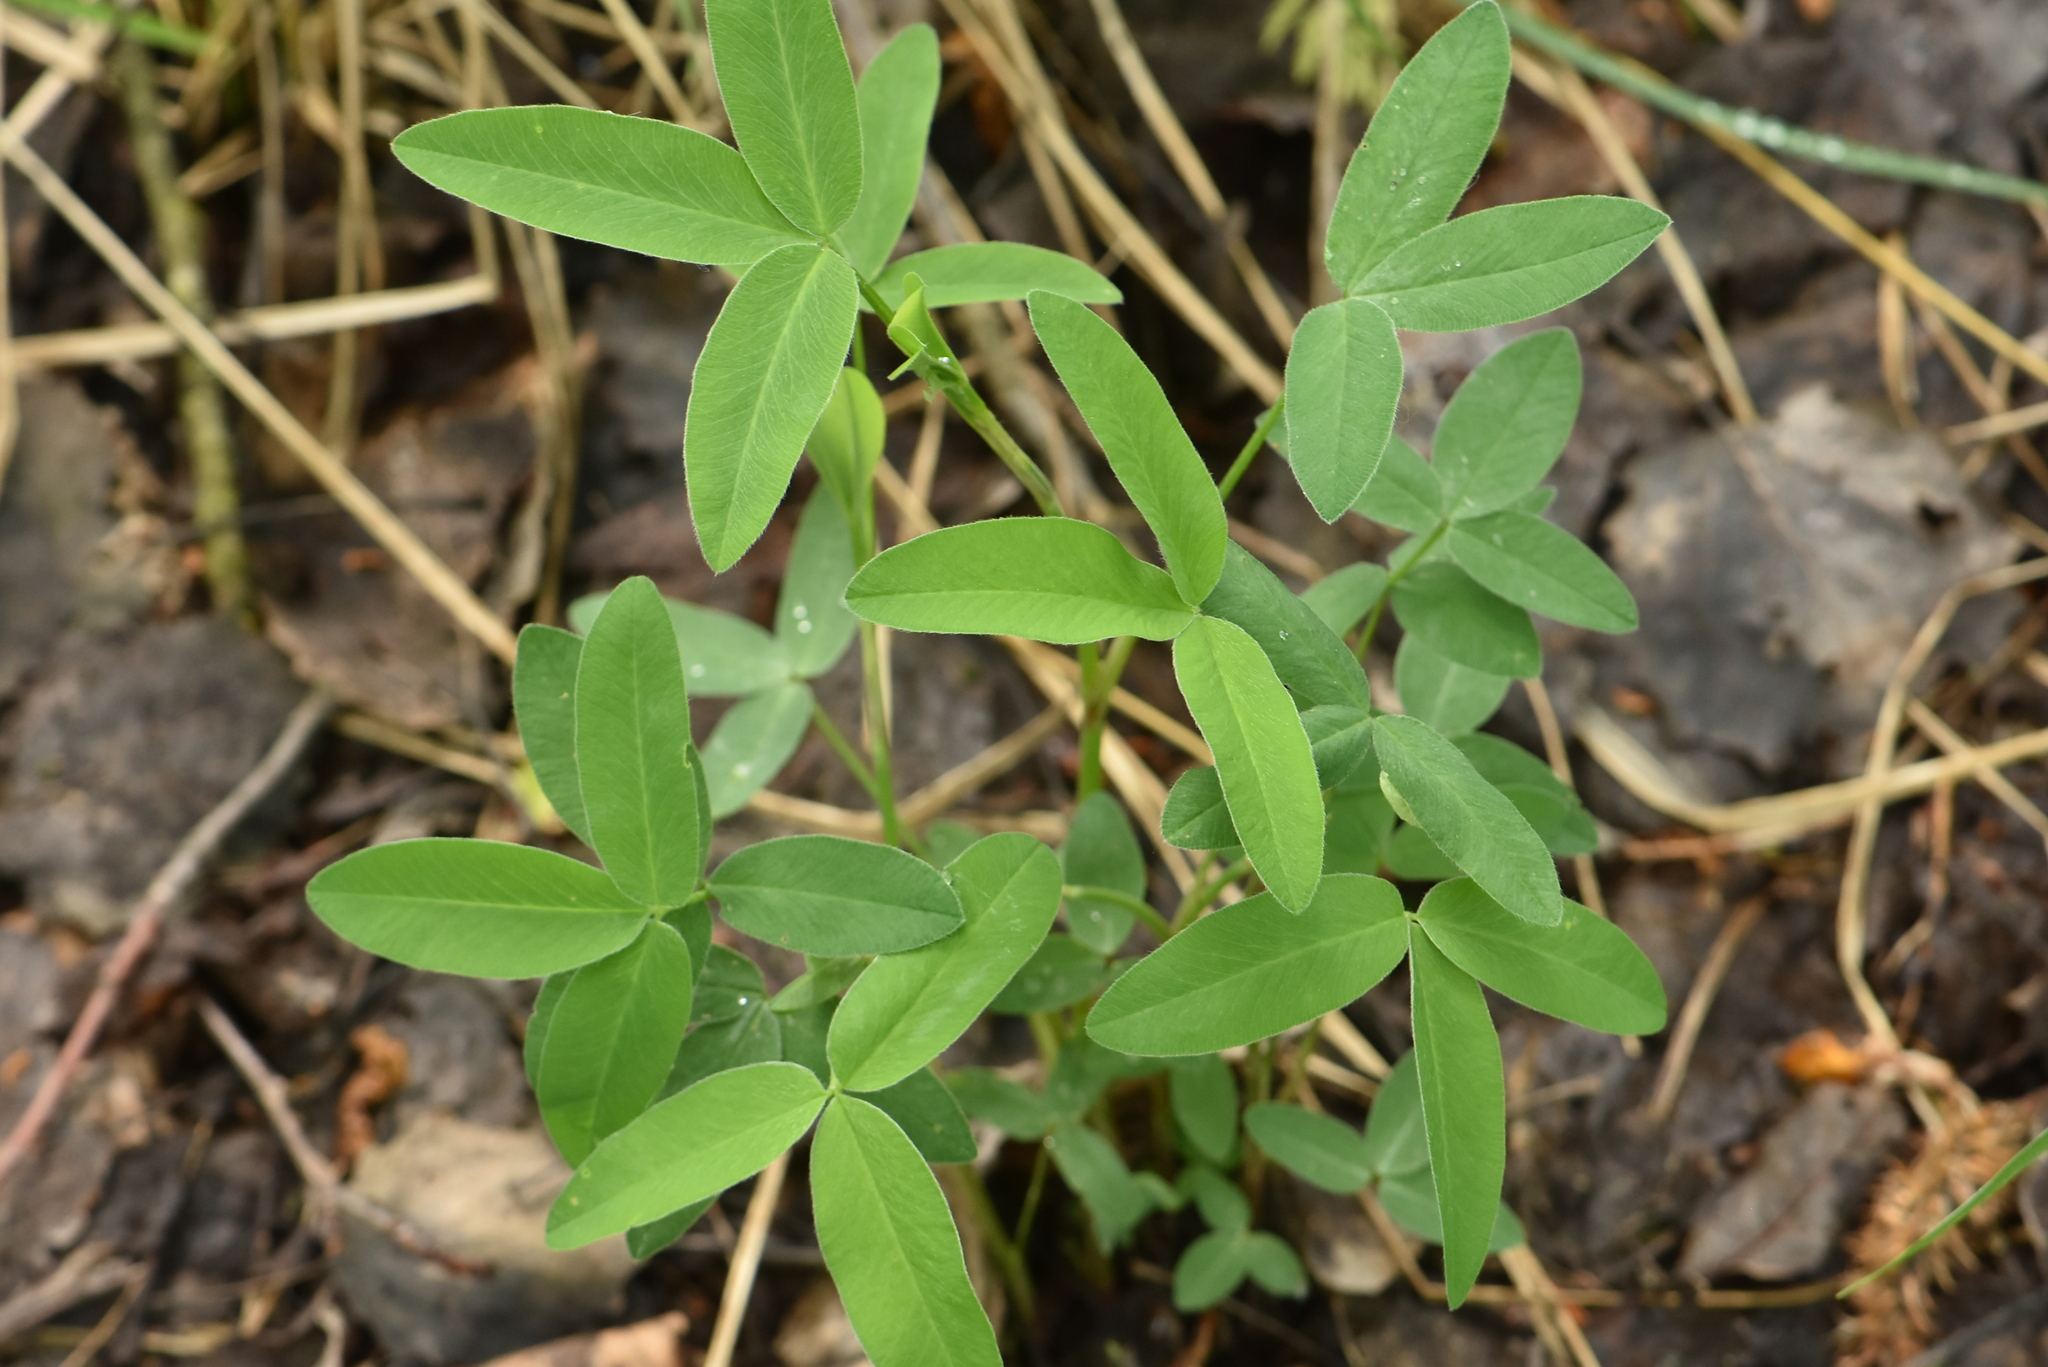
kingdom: Plantae
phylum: Tracheophyta
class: Magnoliopsida
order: Fabales
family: Fabaceae
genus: Trifolium
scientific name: Trifolium medium
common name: Zigzag clover
